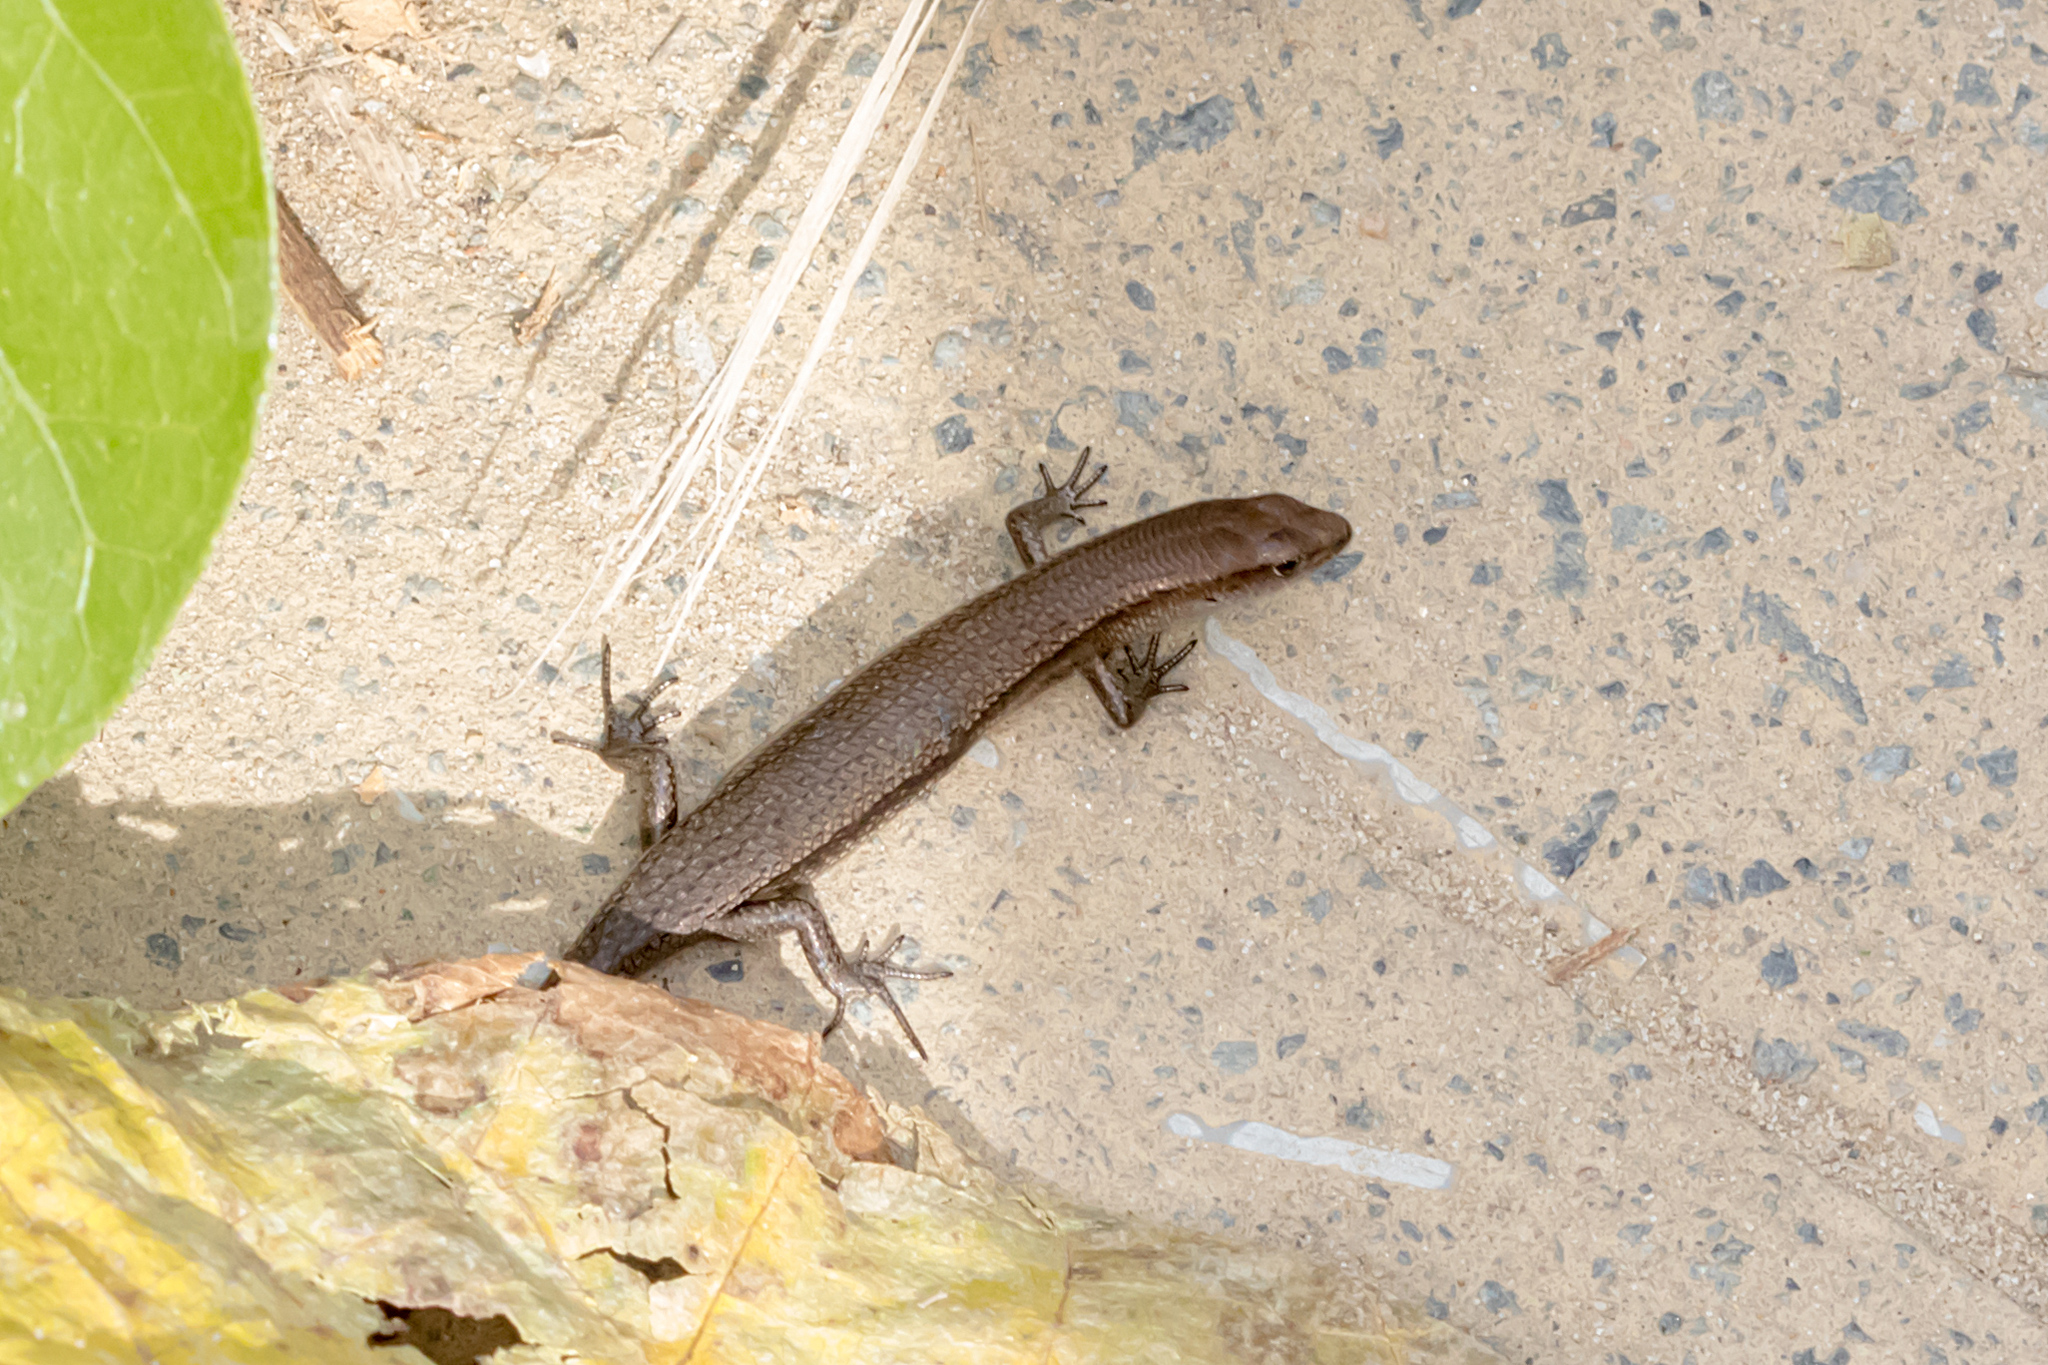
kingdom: Animalia
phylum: Chordata
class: Squamata
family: Scincidae
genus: Lampropholis
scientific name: Lampropholis delicata
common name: Plague skink
